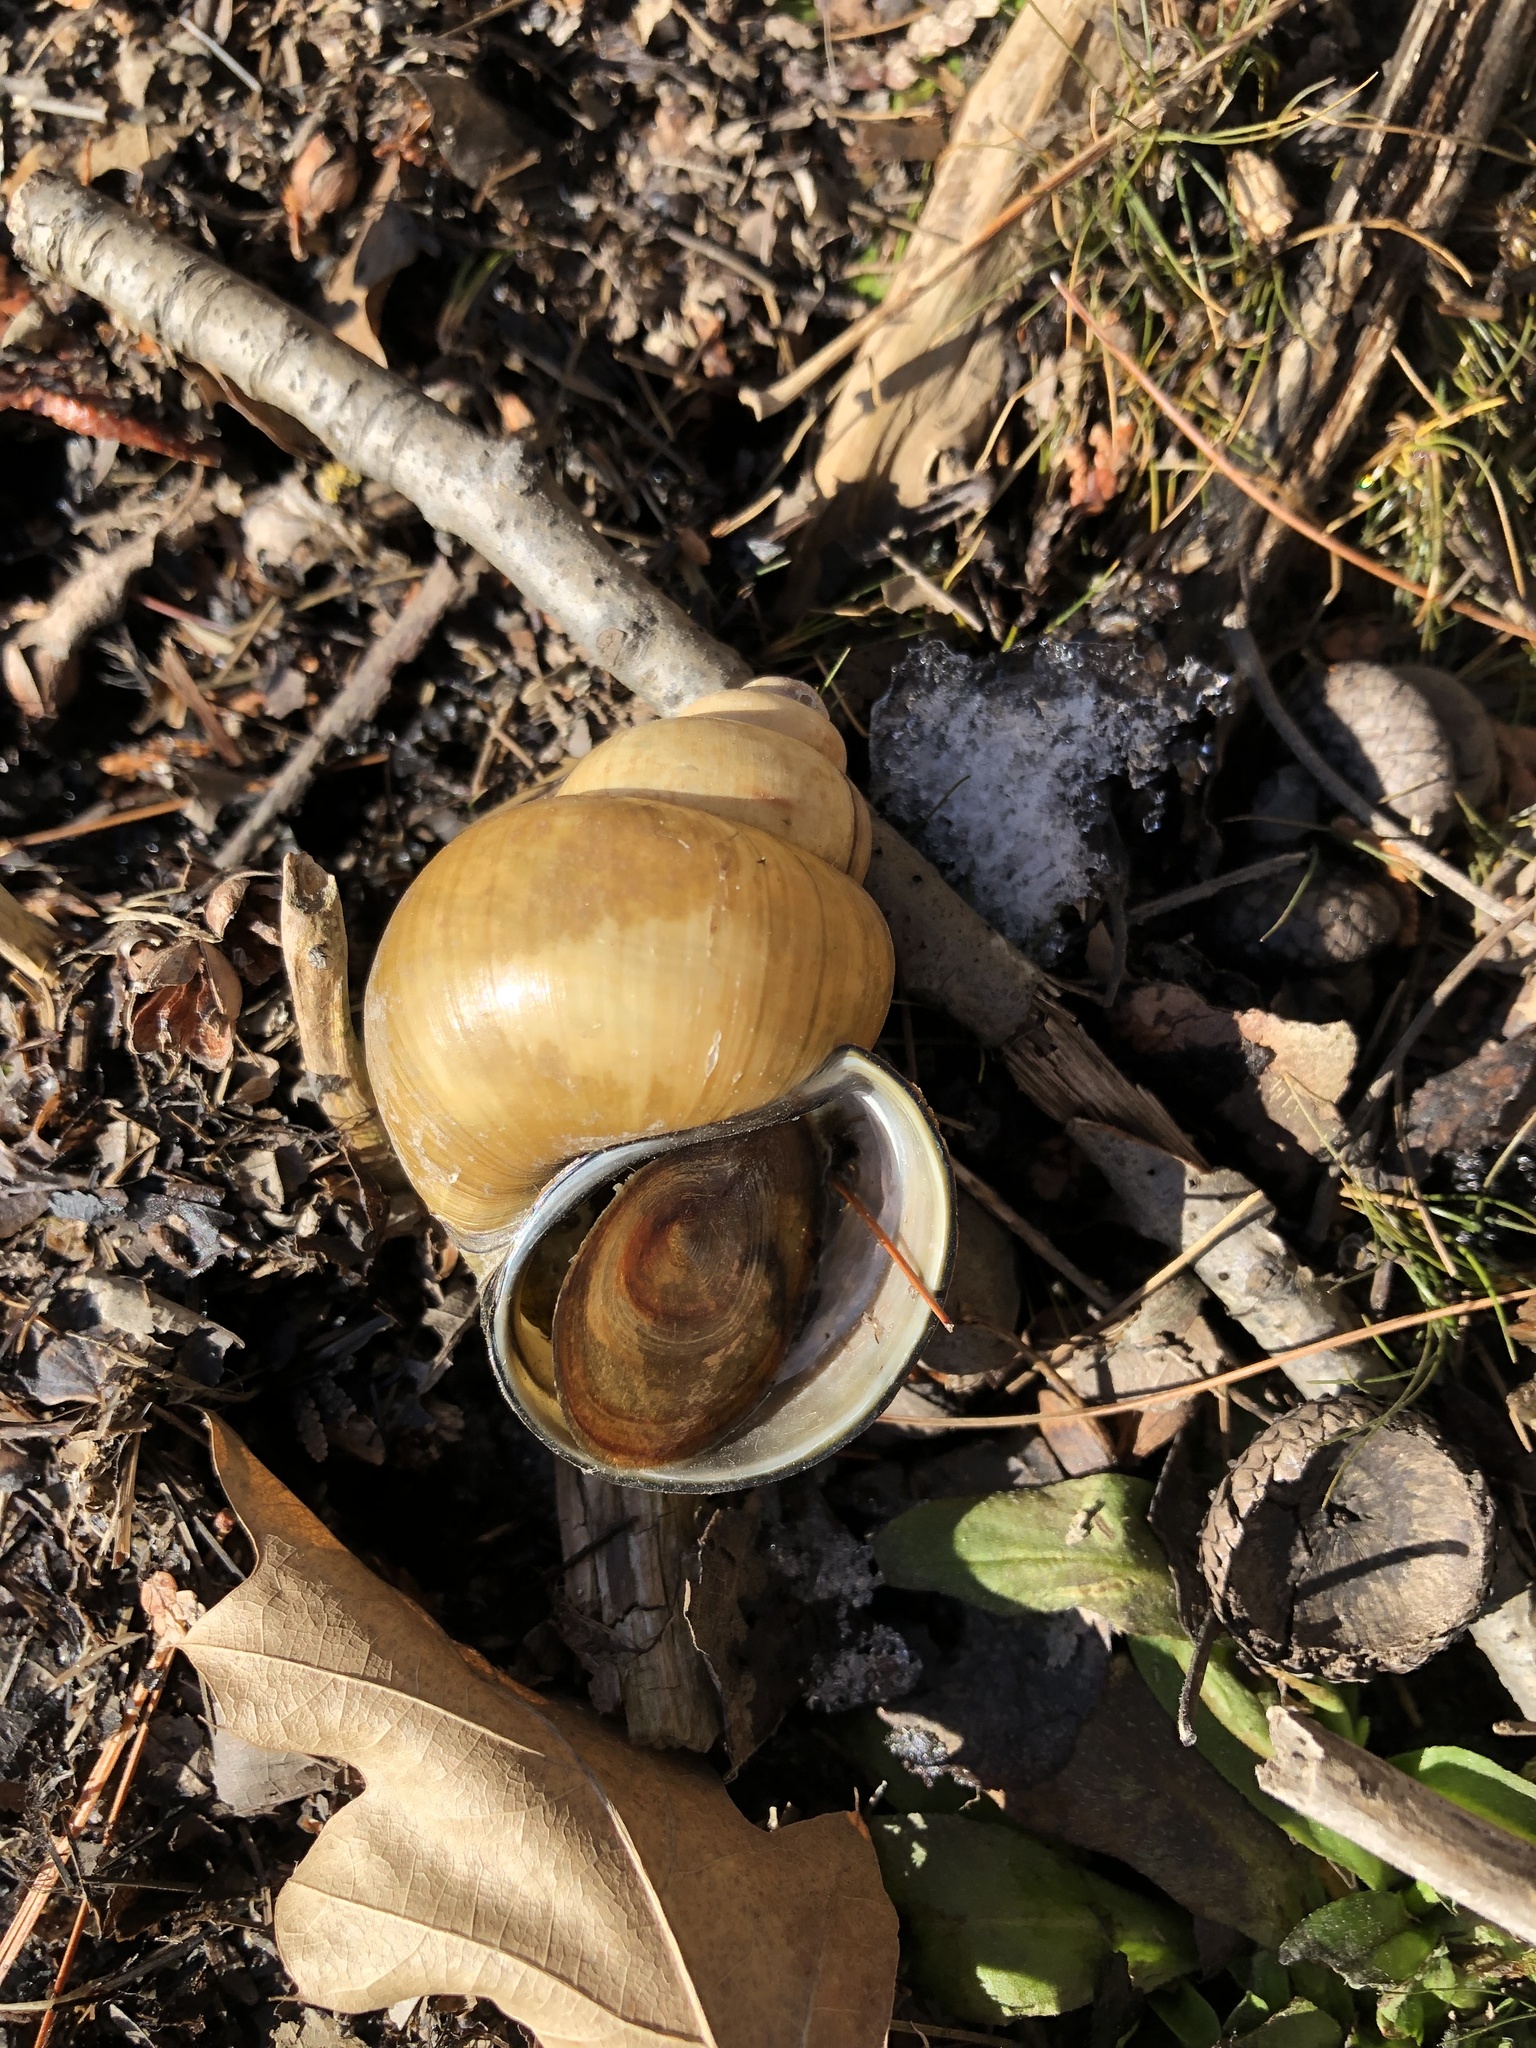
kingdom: Animalia
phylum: Mollusca
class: Gastropoda
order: Architaenioglossa
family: Viviparidae
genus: Cipangopaludina
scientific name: Cipangopaludina chinensis
